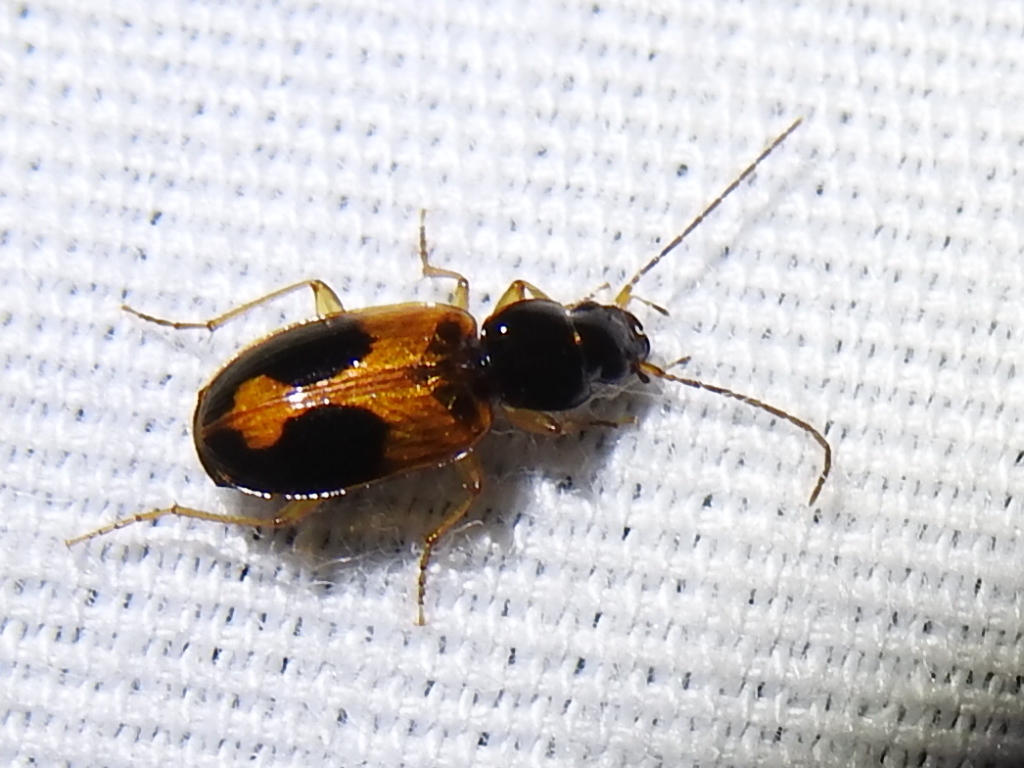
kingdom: Animalia
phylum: Arthropoda
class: Insecta
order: Coleoptera
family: Carabidae
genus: Badister
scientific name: Badister elegans
